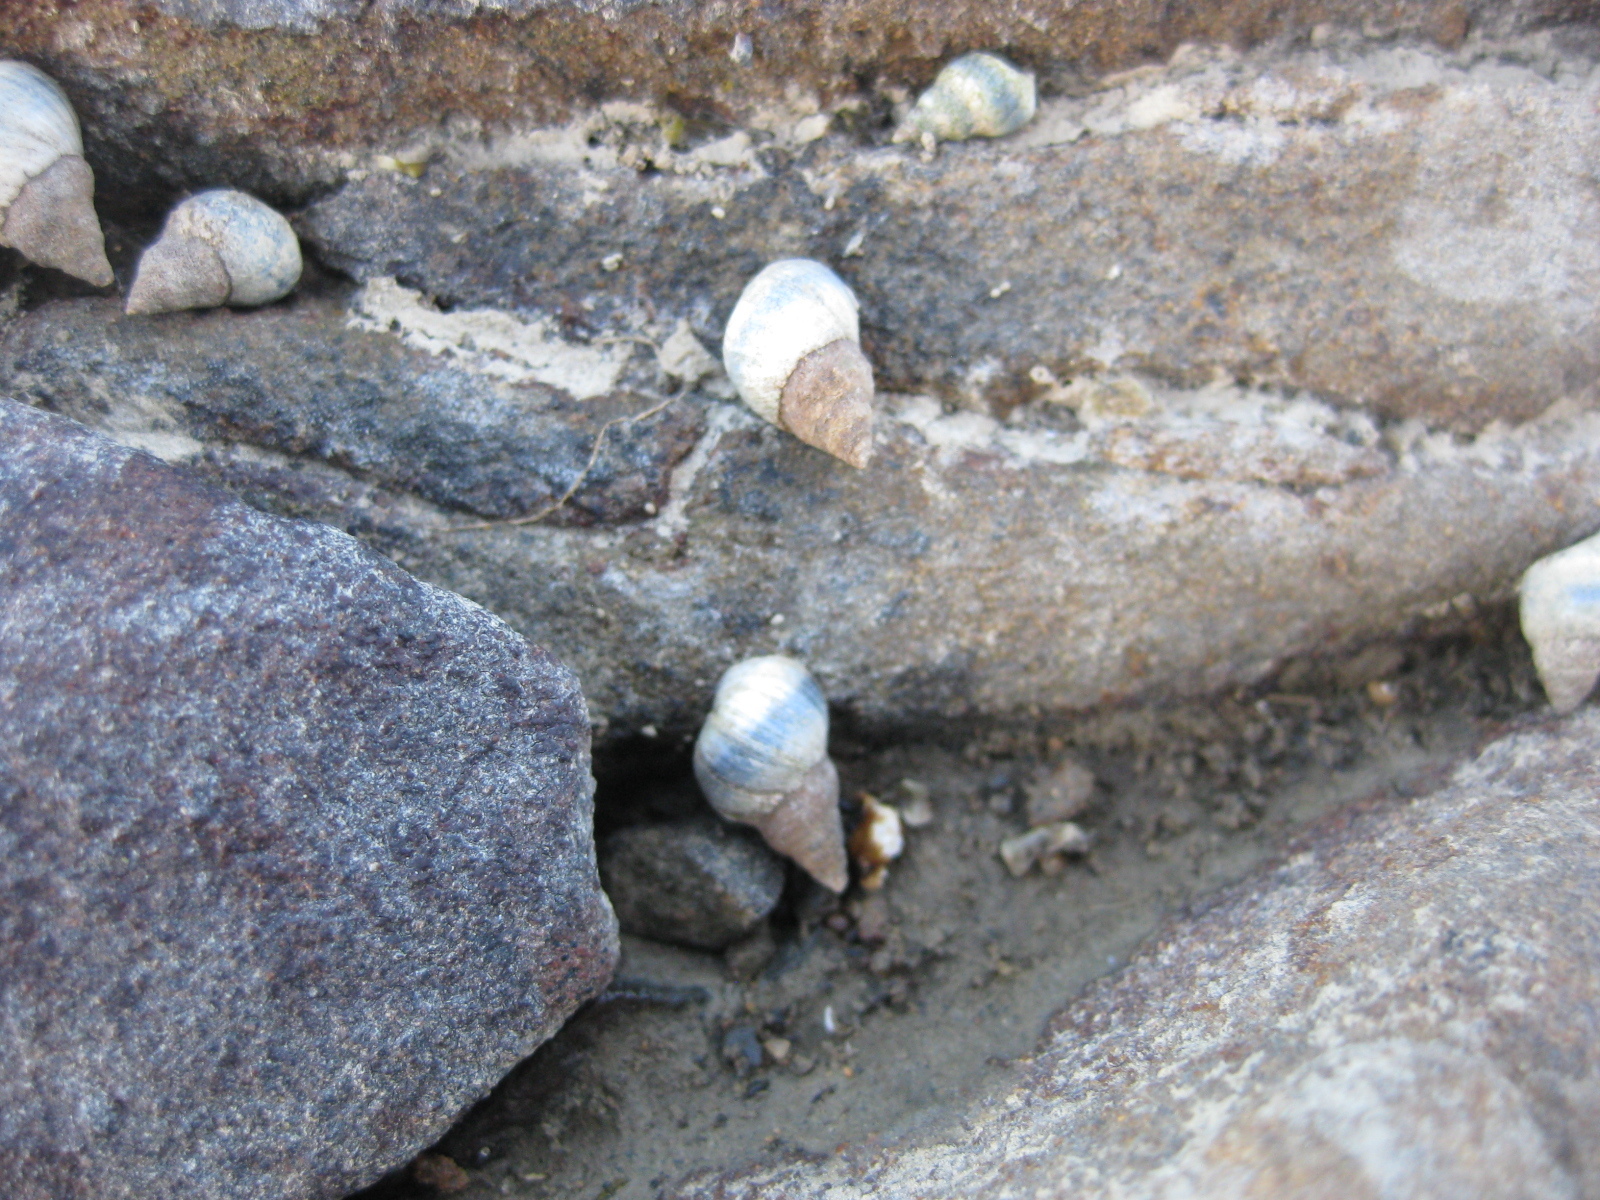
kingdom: Animalia
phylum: Mollusca
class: Gastropoda
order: Littorinimorpha
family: Littorinidae
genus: Austrolittorina
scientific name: Austrolittorina antipodum
